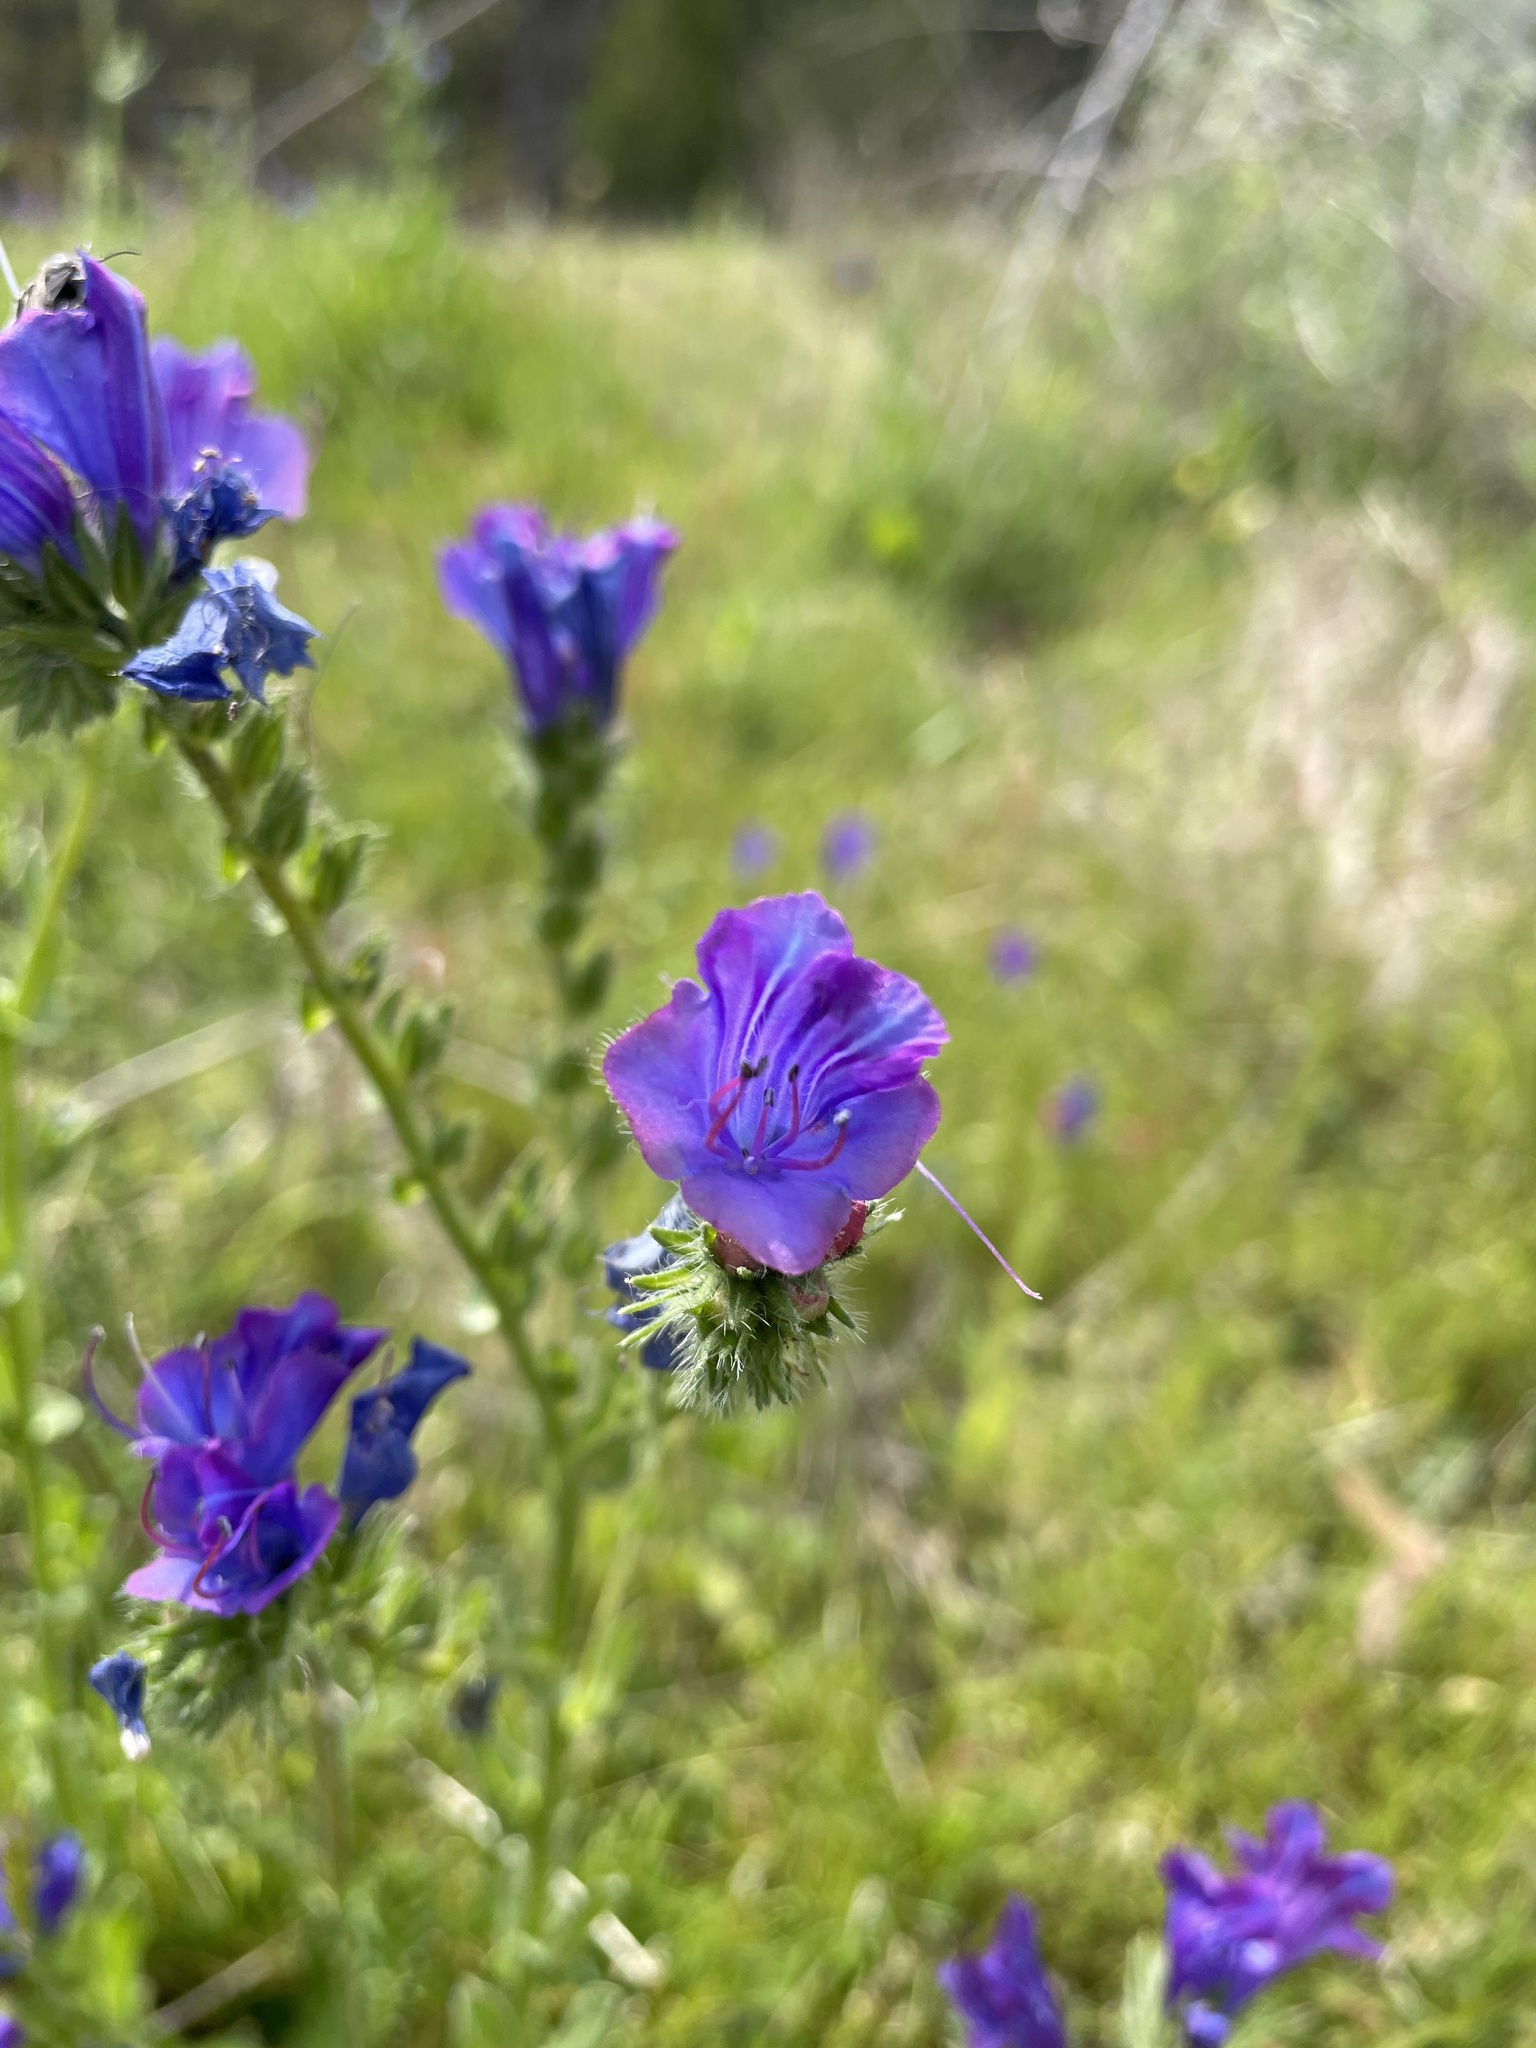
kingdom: Plantae
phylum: Tracheophyta
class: Magnoliopsida
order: Boraginales
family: Boraginaceae
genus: Echium
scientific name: Echium plantagineum
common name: Purple viper's-bugloss
